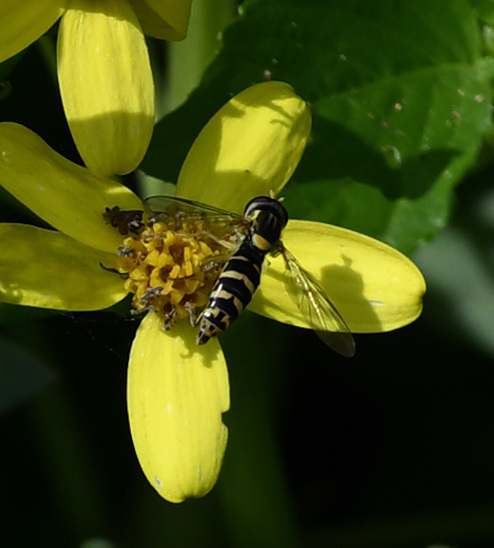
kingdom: Animalia
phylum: Arthropoda
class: Insecta
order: Diptera
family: Syrphidae
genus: Sphaerophoria
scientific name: Sphaerophoria
